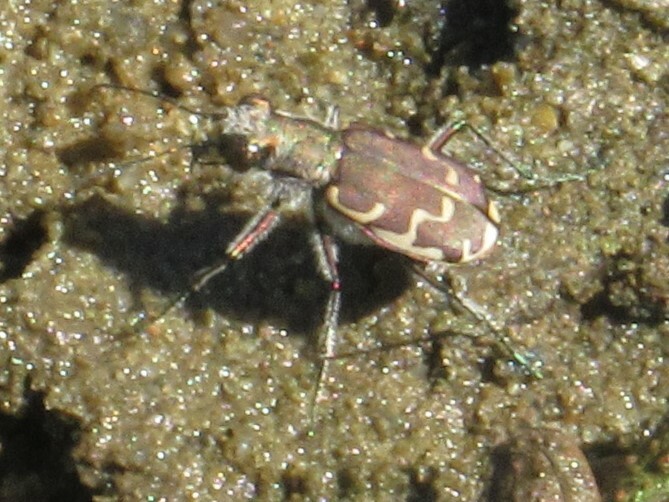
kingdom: Animalia
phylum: Arthropoda
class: Insecta
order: Coleoptera
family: Carabidae
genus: Cicindela
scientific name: Cicindela repanda
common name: Bronzed tiger beetle
